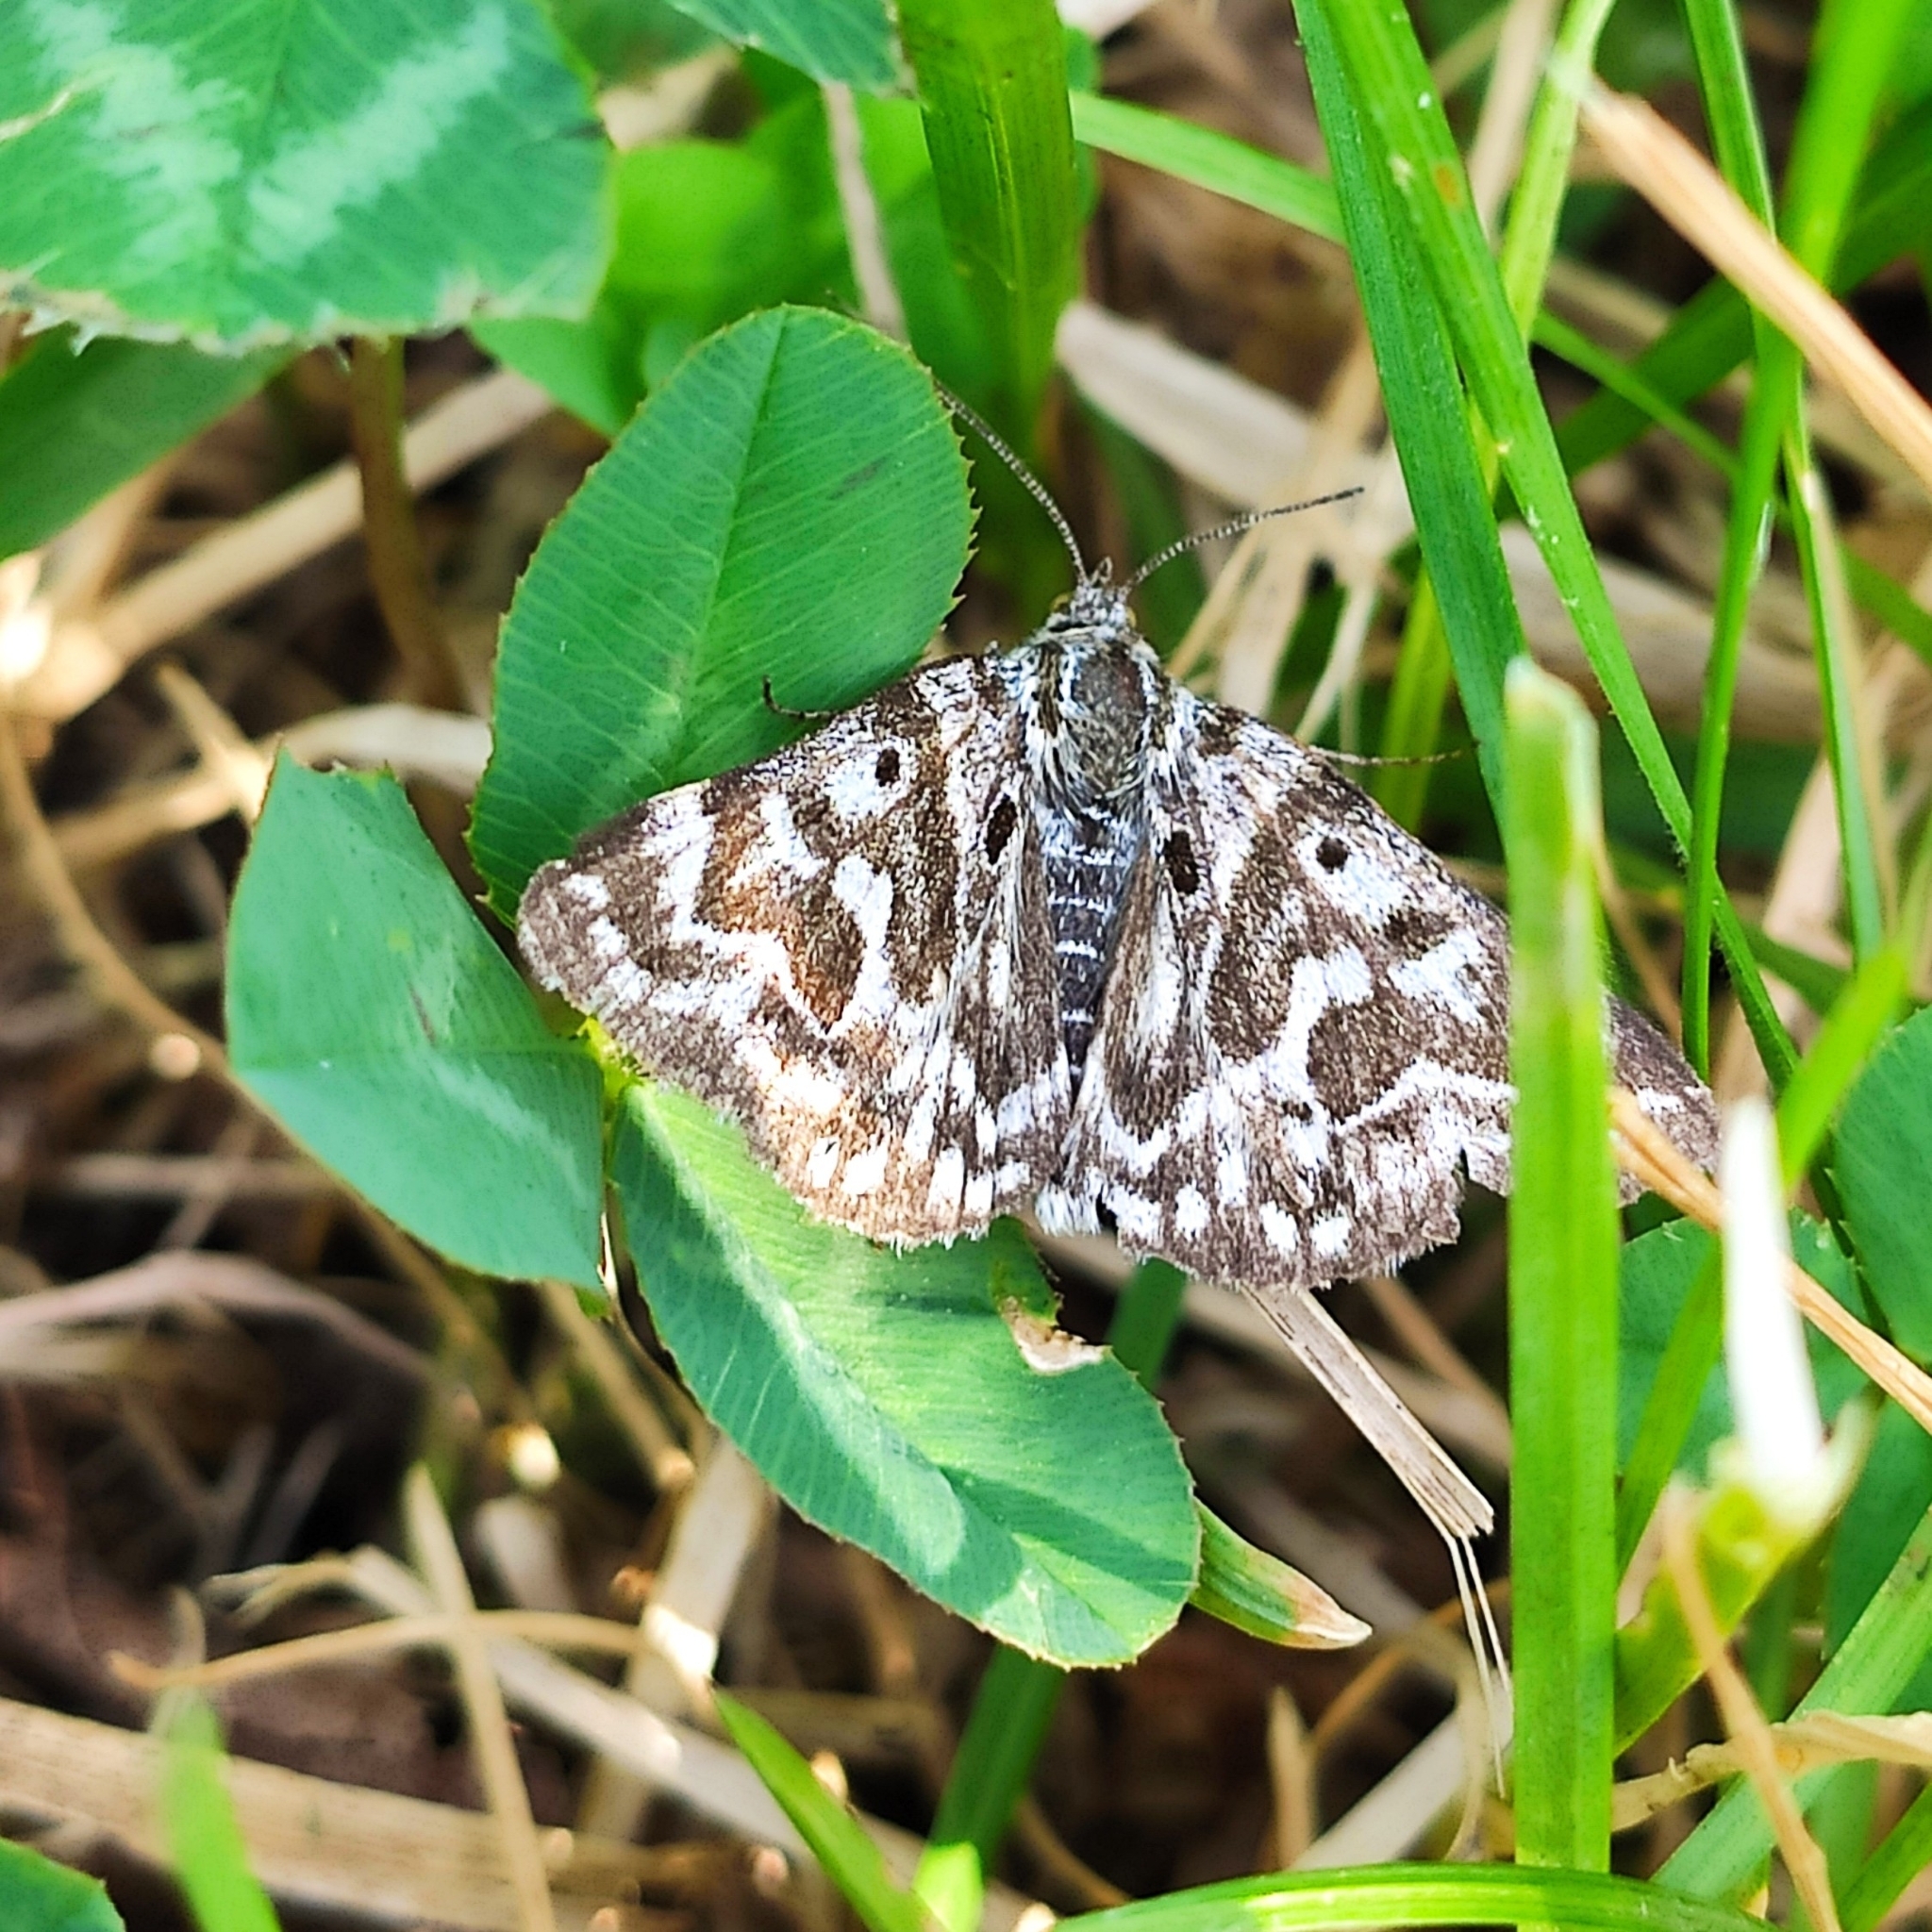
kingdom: Animalia
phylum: Arthropoda
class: Insecta
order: Lepidoptera
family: Erebidae
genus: Callistege
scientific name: Callistege mi
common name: Mother shipton
